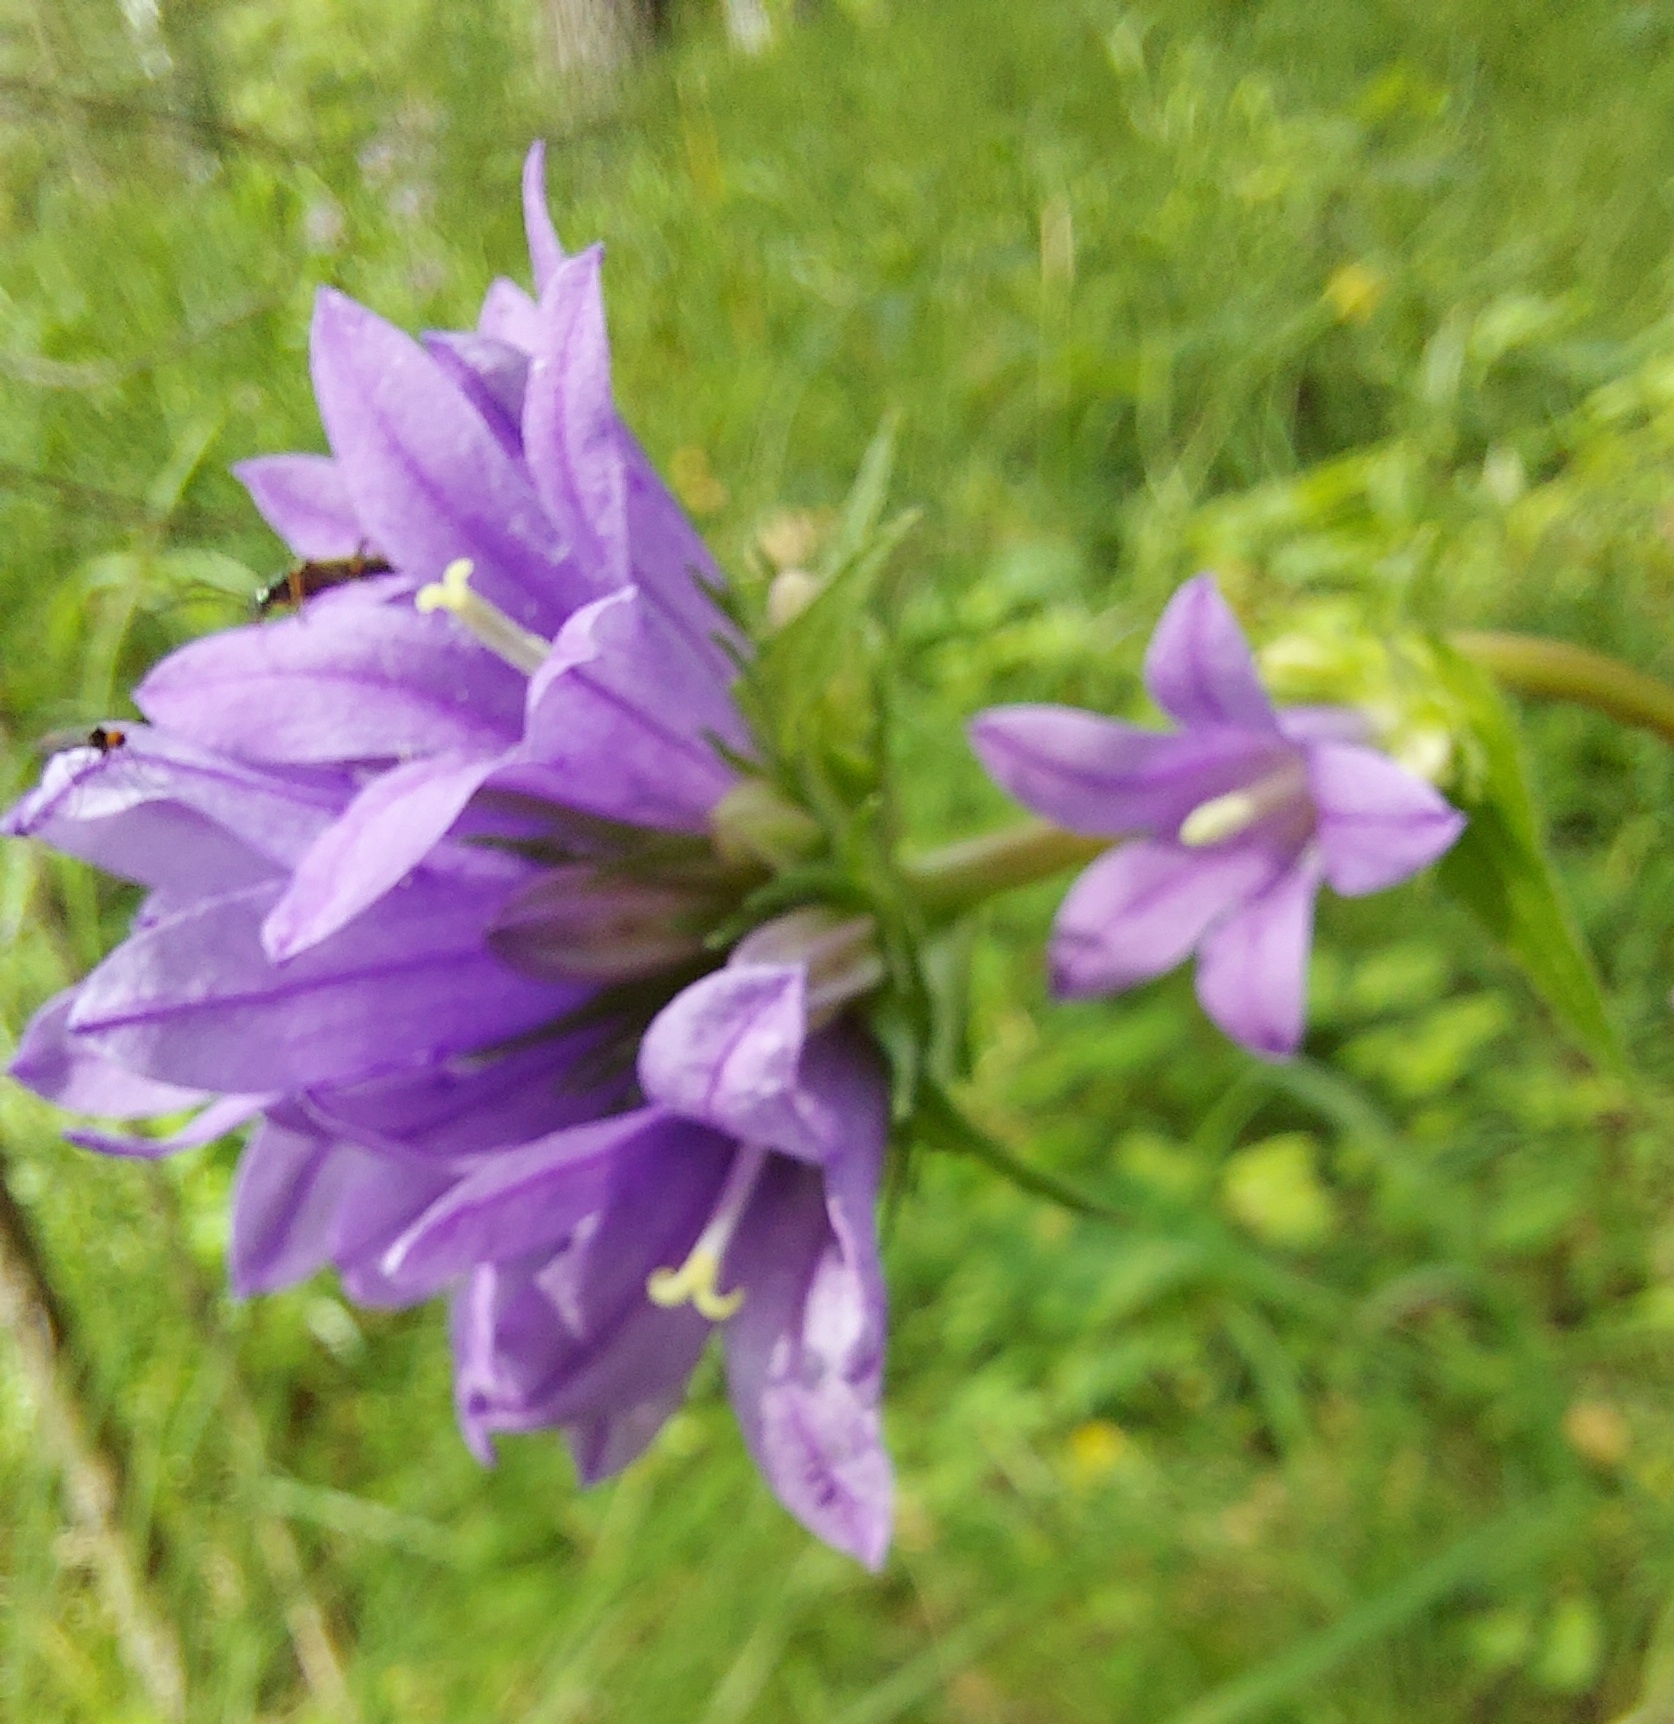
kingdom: Plantae
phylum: Tracheophyta
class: Magnoliopsida
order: Asterales
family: Campanulaceae
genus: Campanula
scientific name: Campanula glomerata
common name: Clustered bellflower
